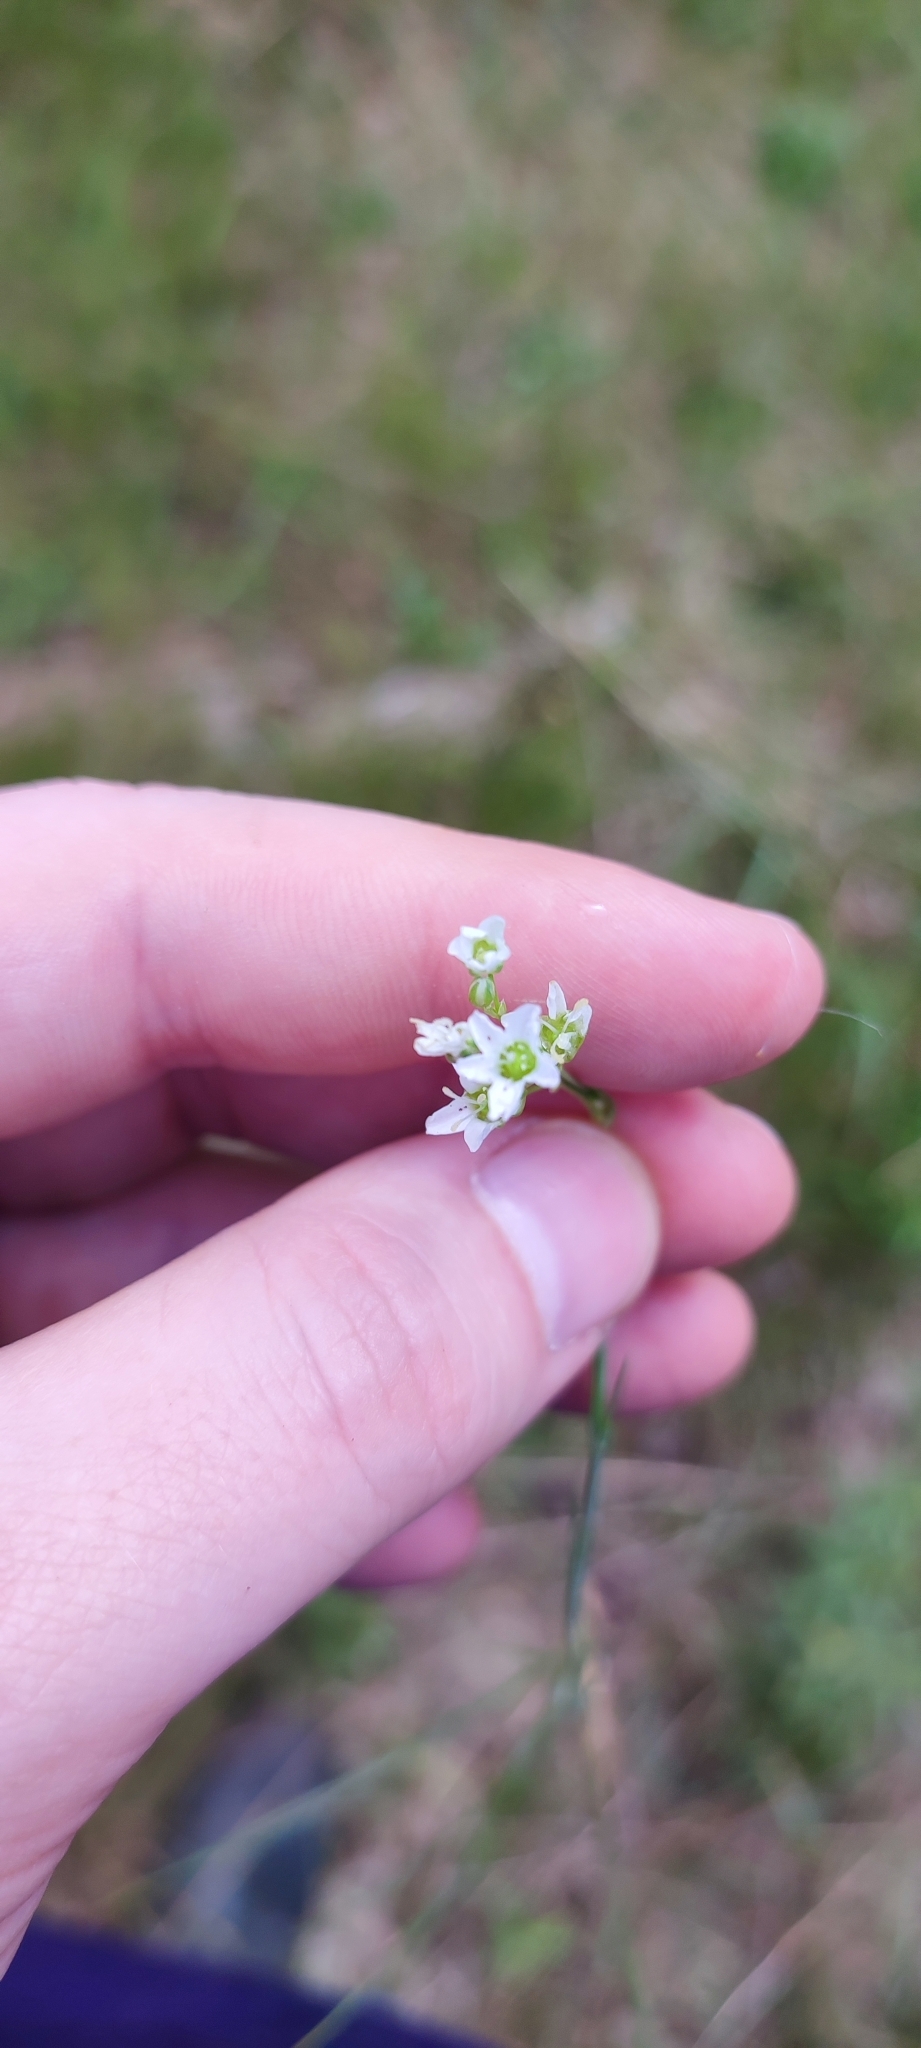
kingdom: Plantae
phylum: Tracheophyta
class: Magnoliopsida
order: Caryophyllales
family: Caryophyllaceae
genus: Eremogone
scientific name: Eremogone saxatilis
